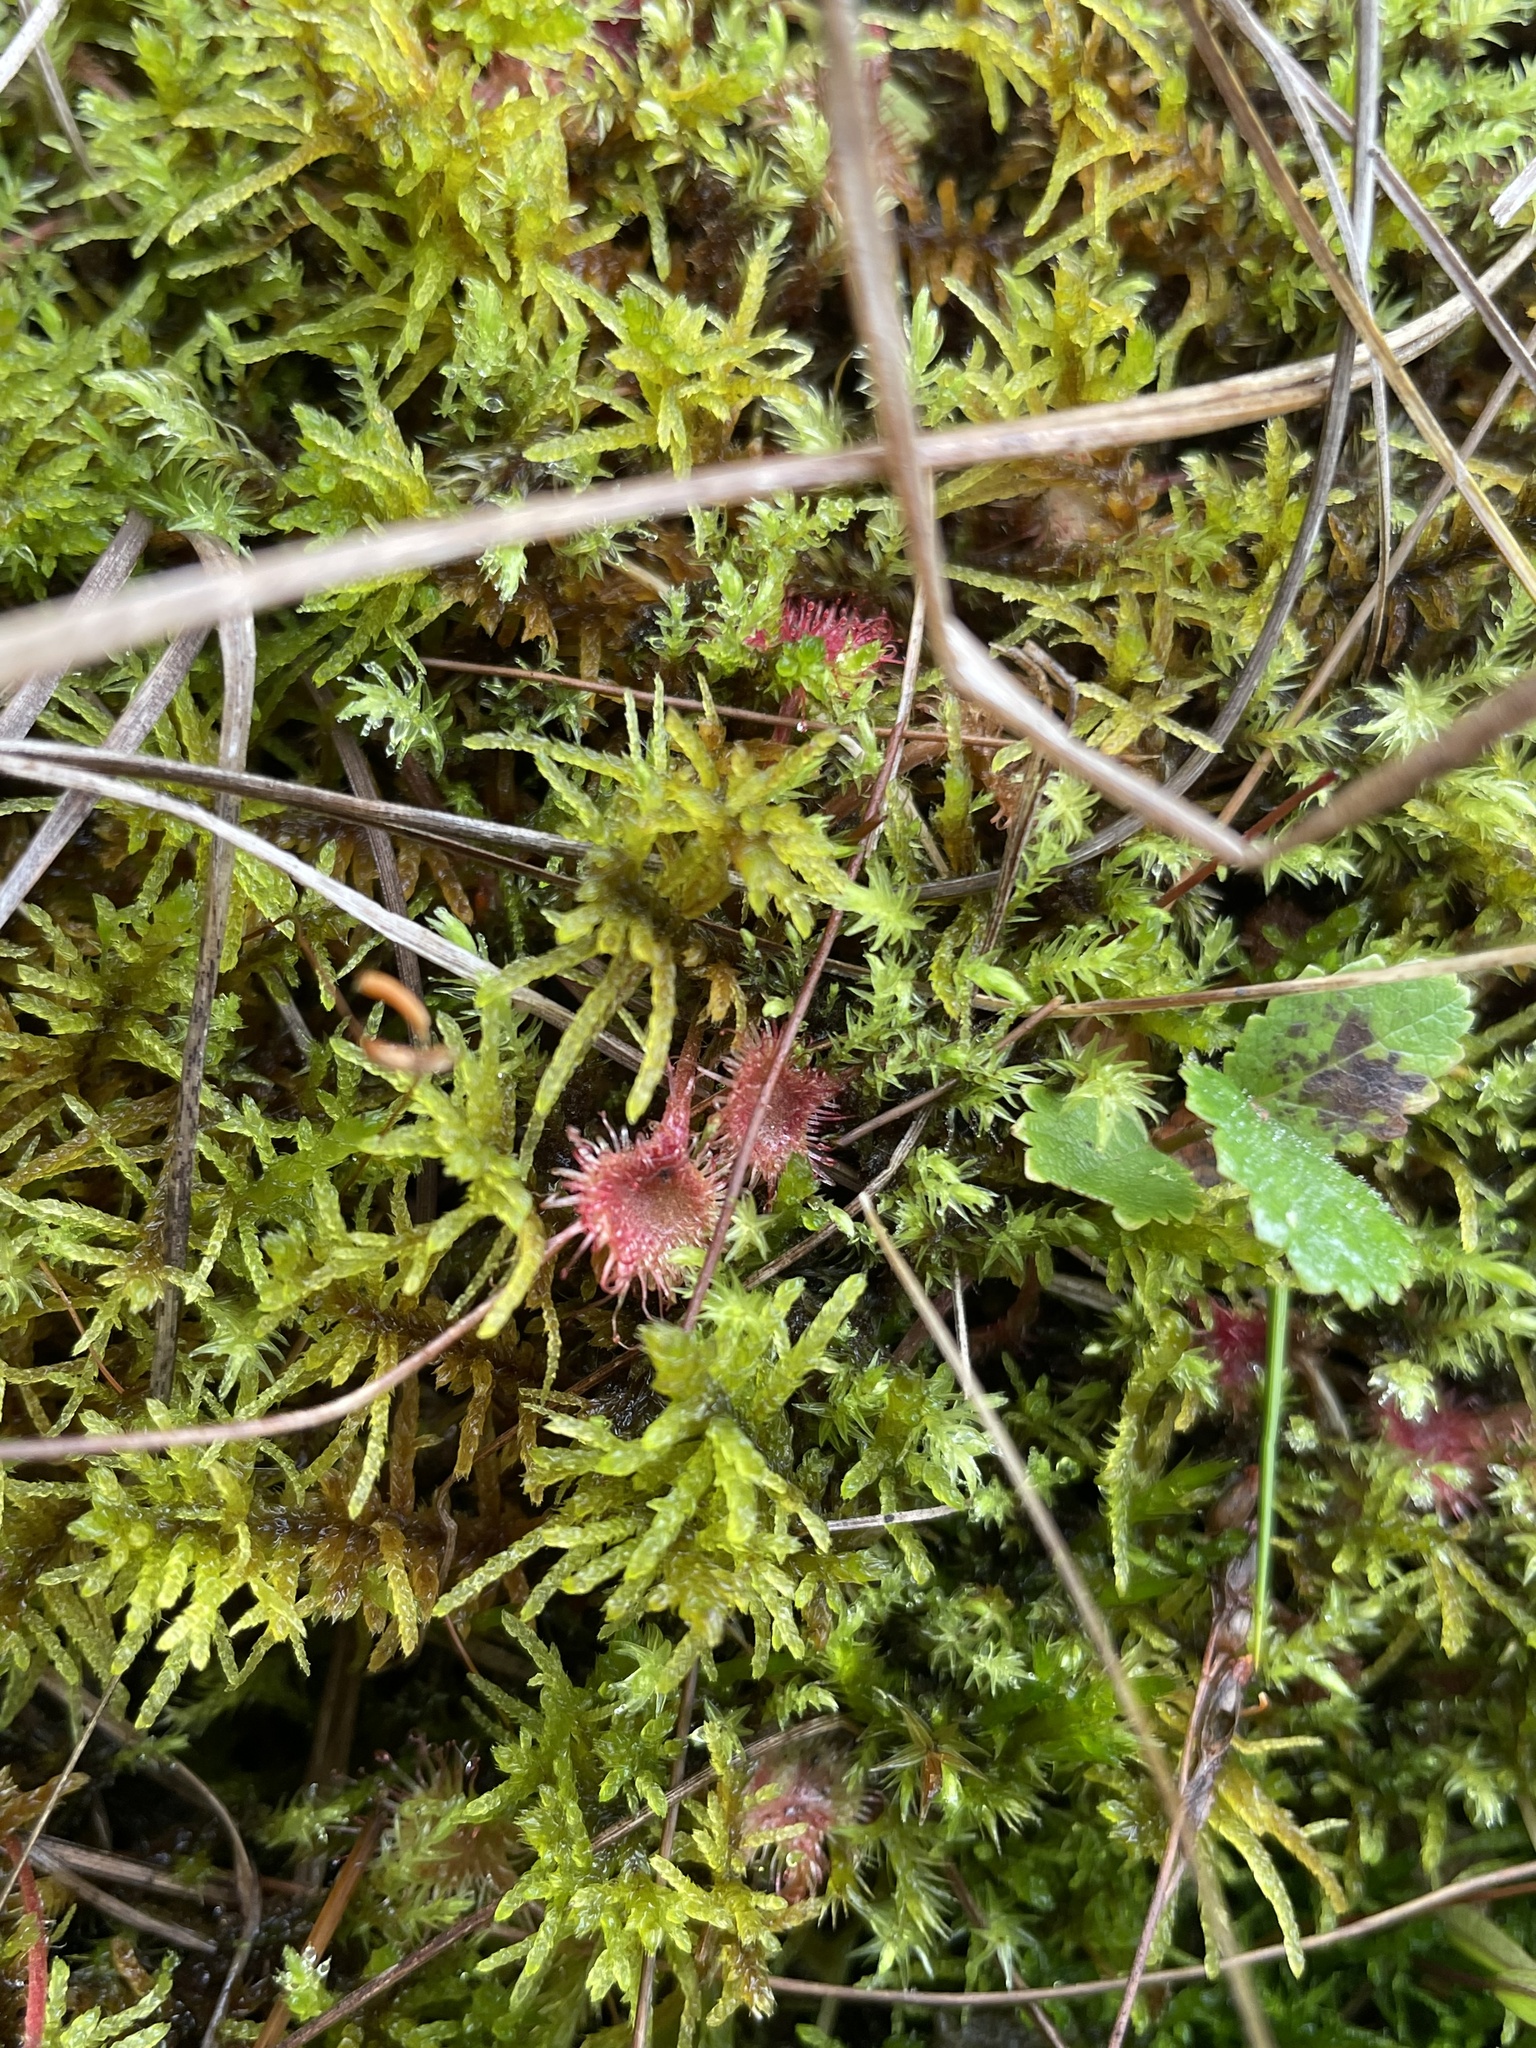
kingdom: Plantae
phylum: Tracheophyta
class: Magnoliopsida
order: Caryophyllales
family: Droseraceae
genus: Drosera
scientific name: Drosera rotundifolia
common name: Round-leaved sundew
